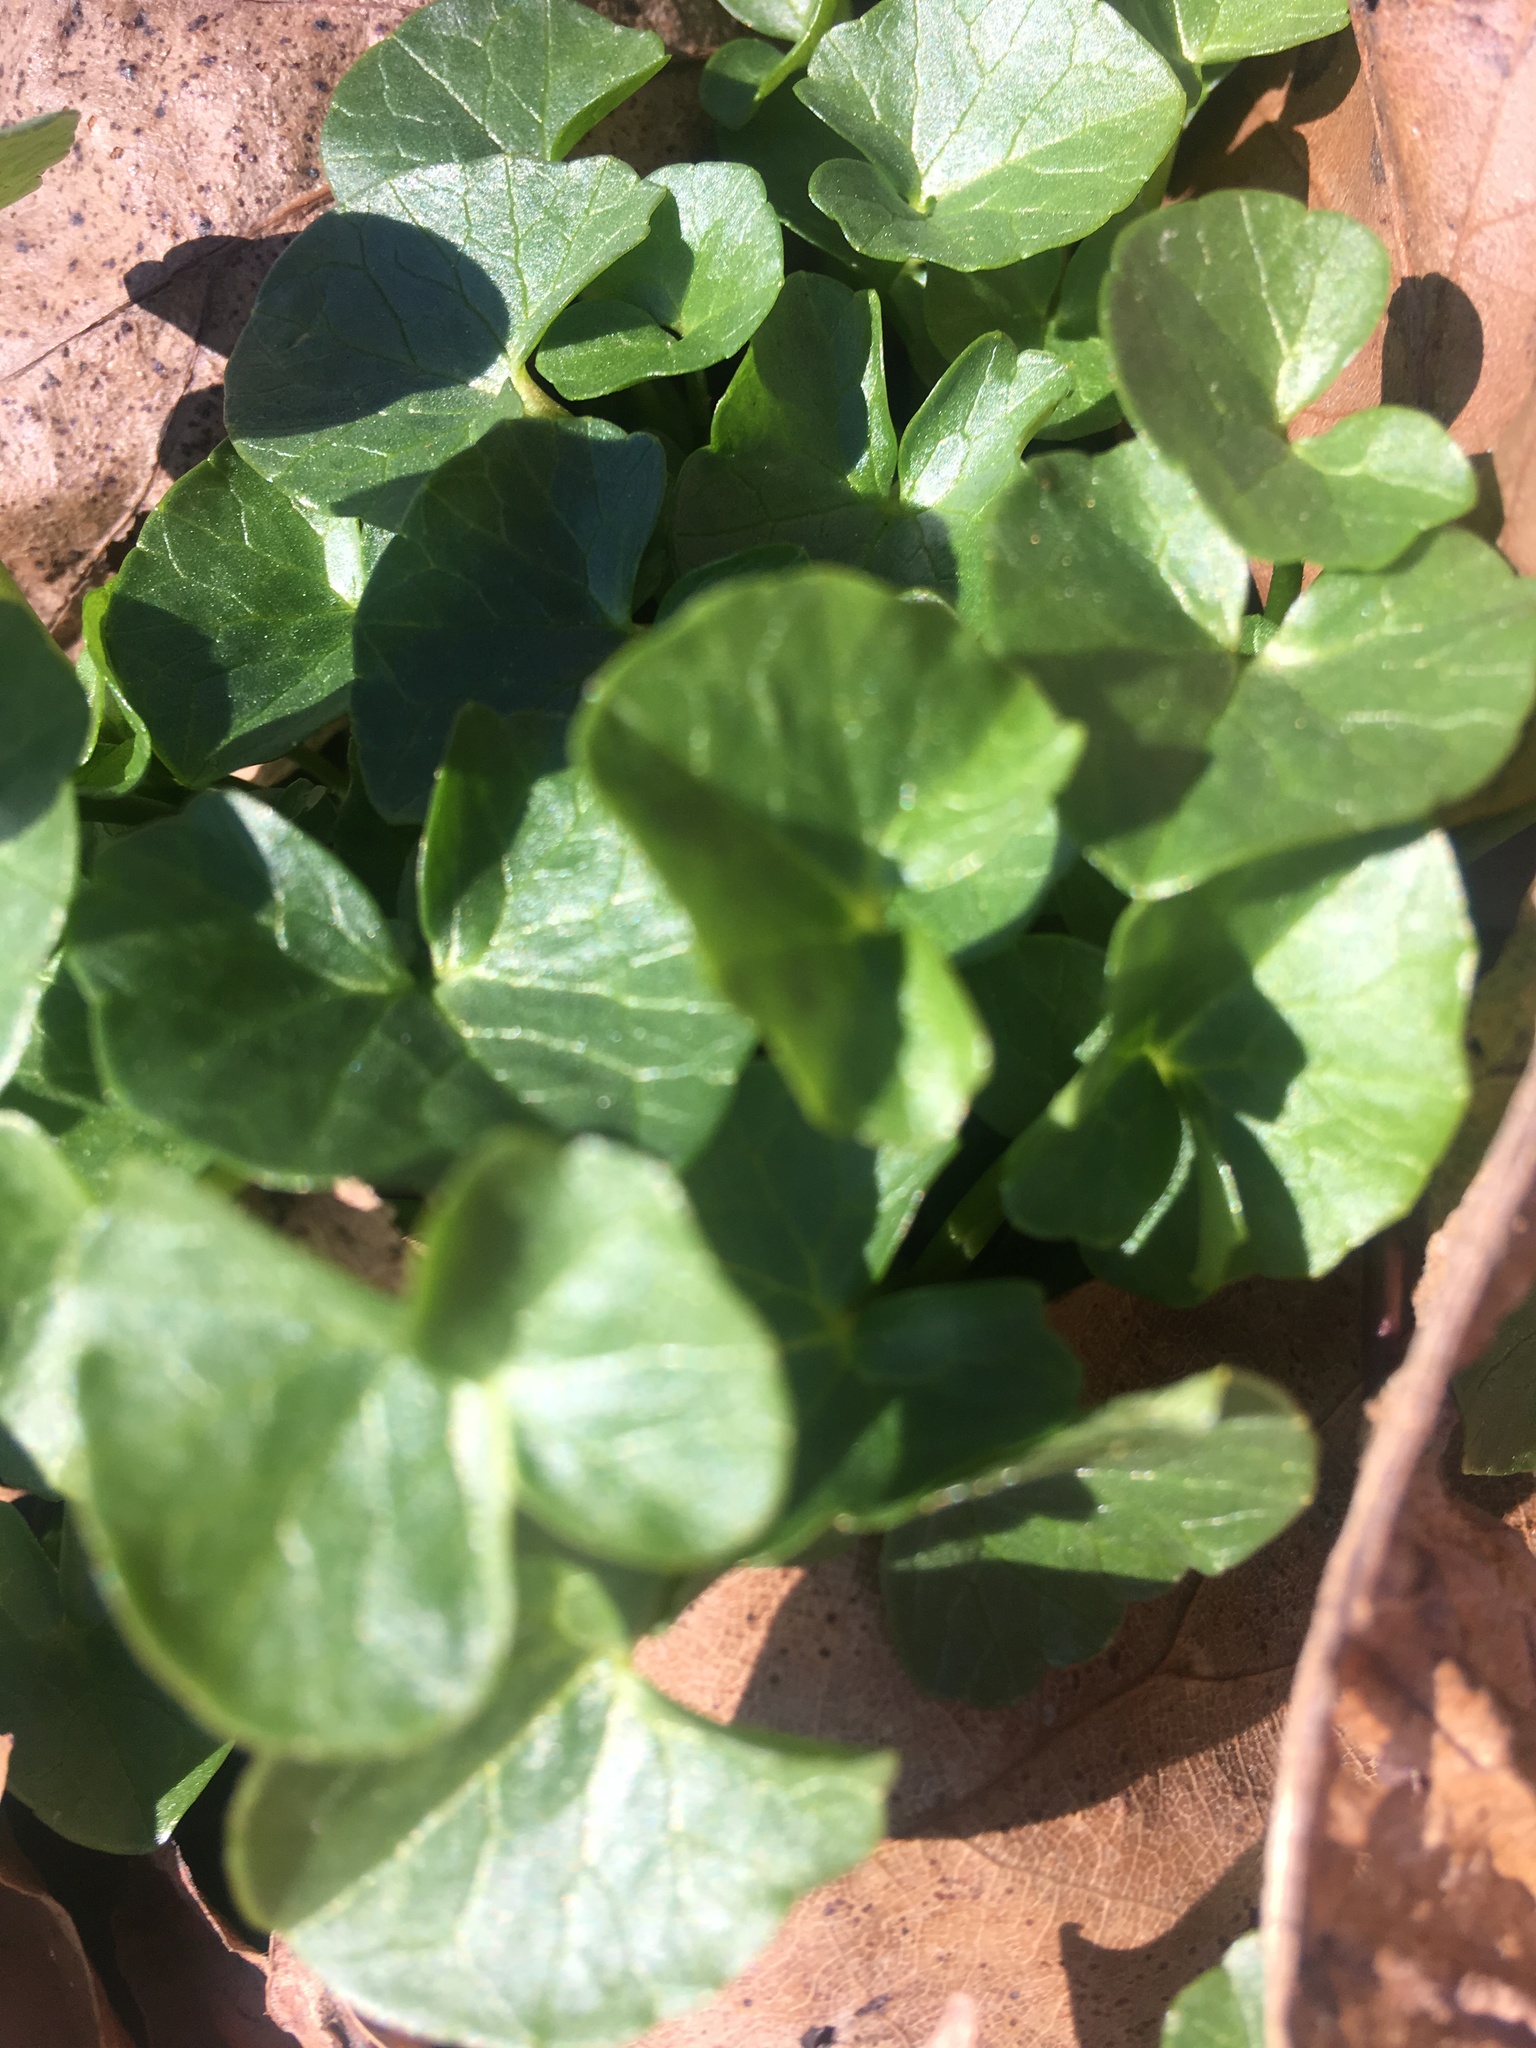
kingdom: Plantae
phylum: Tracheophyta
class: Magnoliopsida
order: Ranunculales
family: Ranunculaceae
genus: Ficaria
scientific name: Ficaria verna
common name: Lesser celandine
